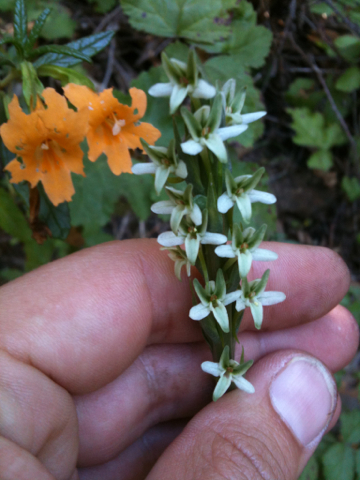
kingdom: Plantae
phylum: Tracheophyta
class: Liliopsida
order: Asparagales
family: Orchidaceae
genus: Platanthera
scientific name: Platanthera elegans
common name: Coast piperia
